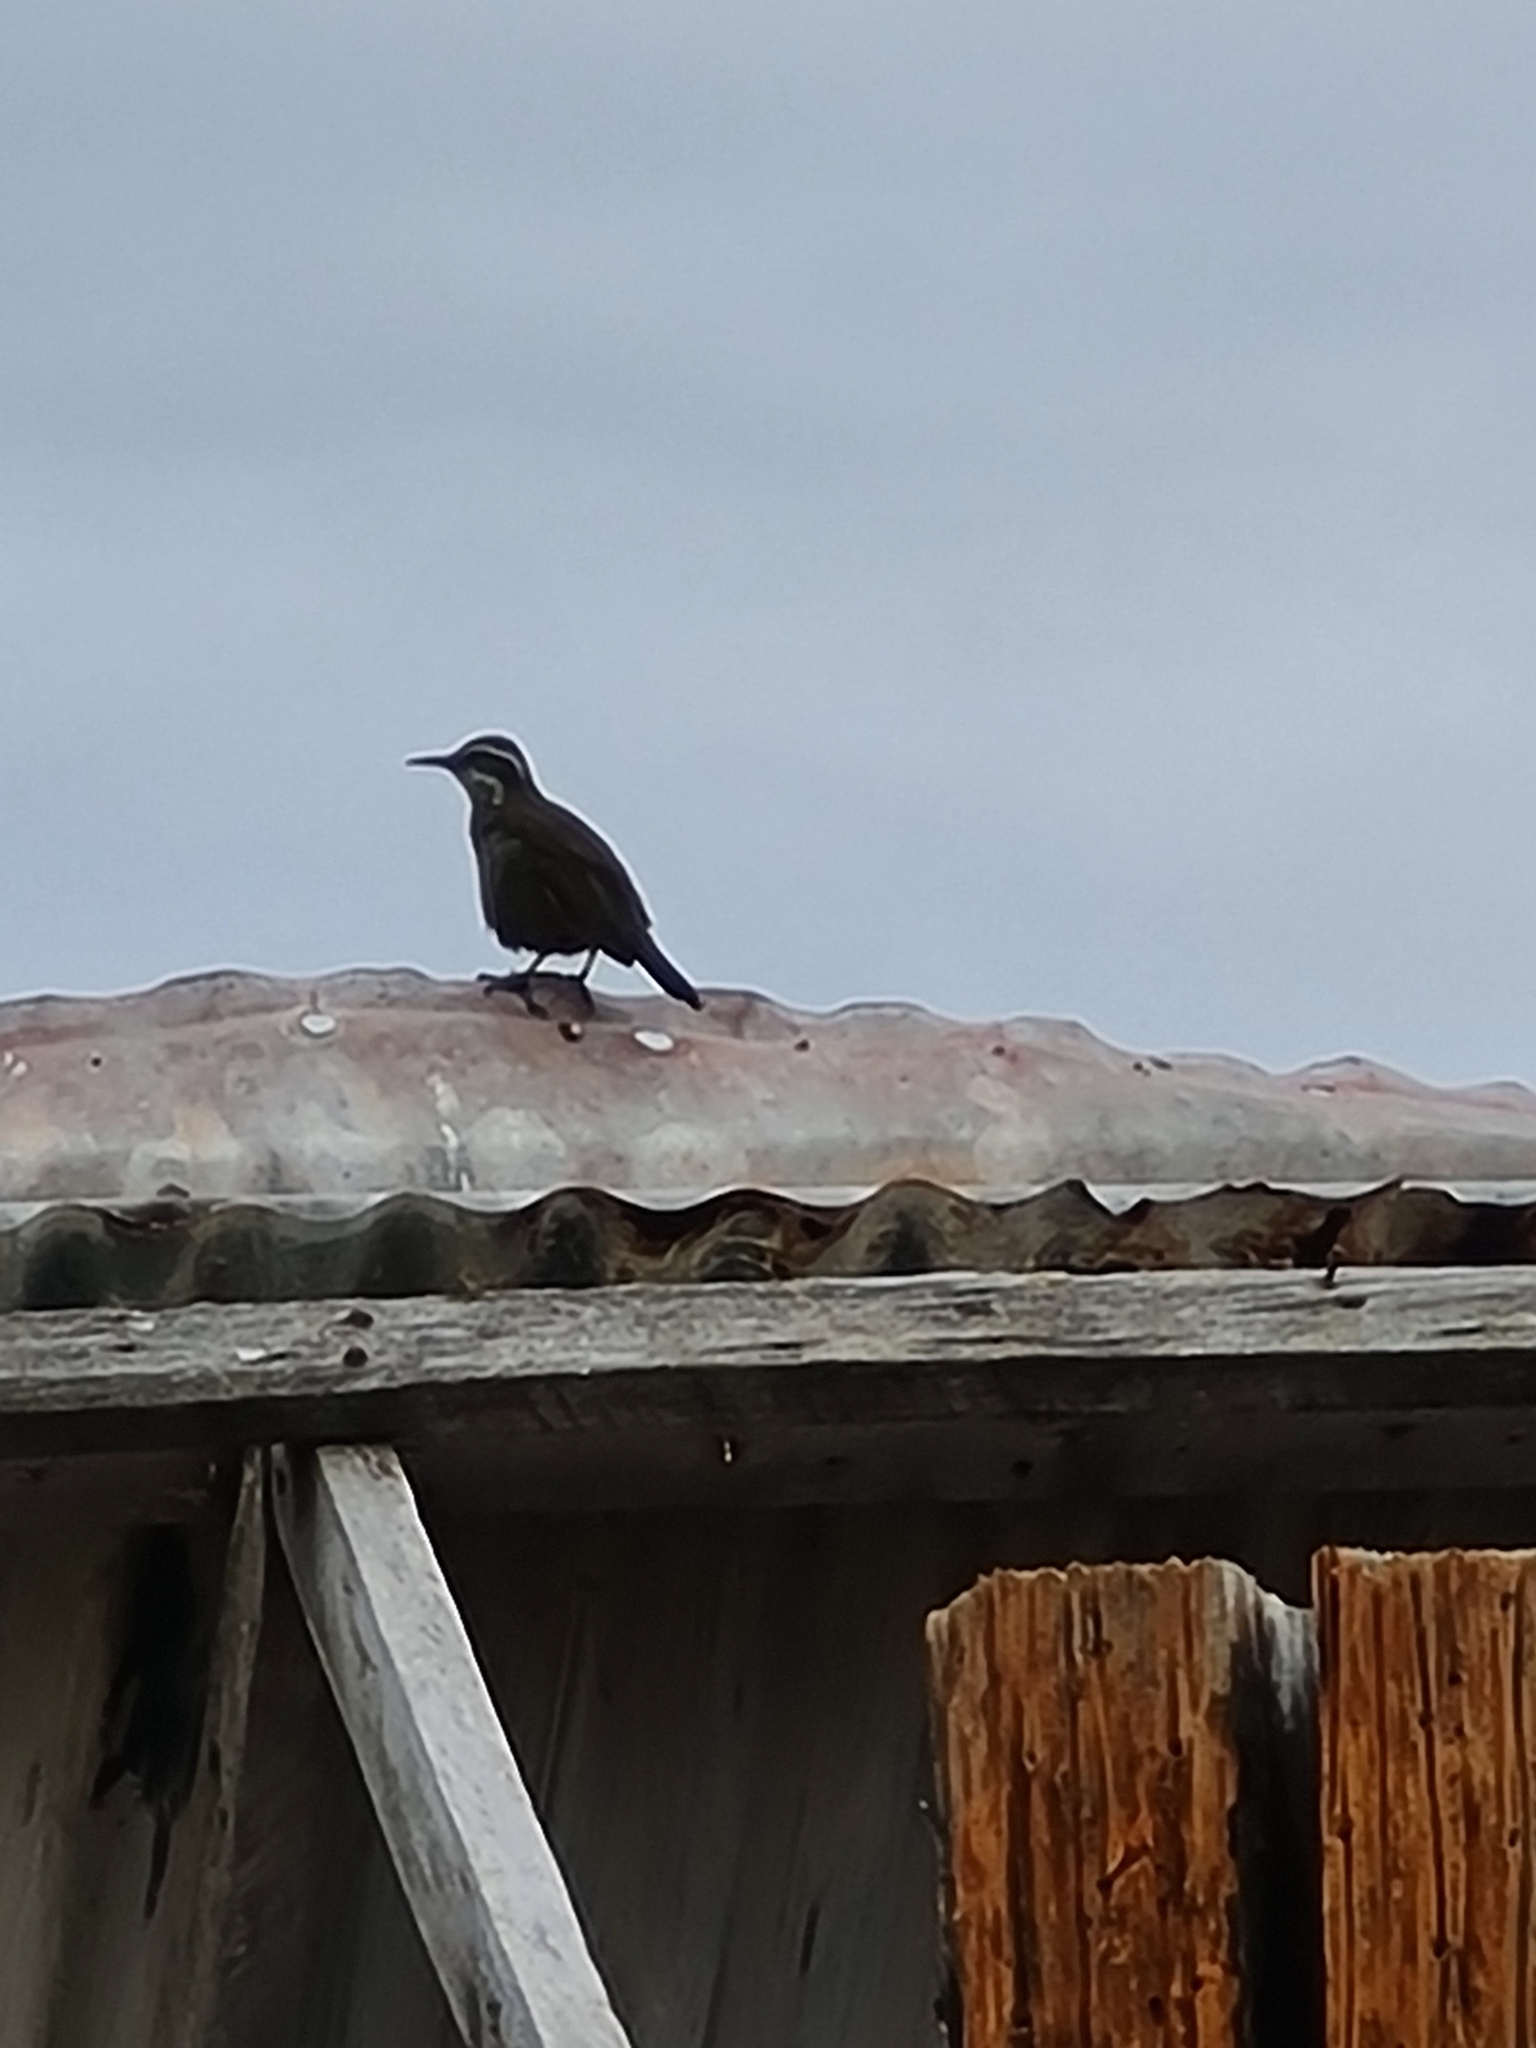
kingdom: Animalia
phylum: Chordata
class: Aves
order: Passeriformes
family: Furnariidae
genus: Cinclodes
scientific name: Cinclodes patagonicus
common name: Dark-bellied cinclodes
